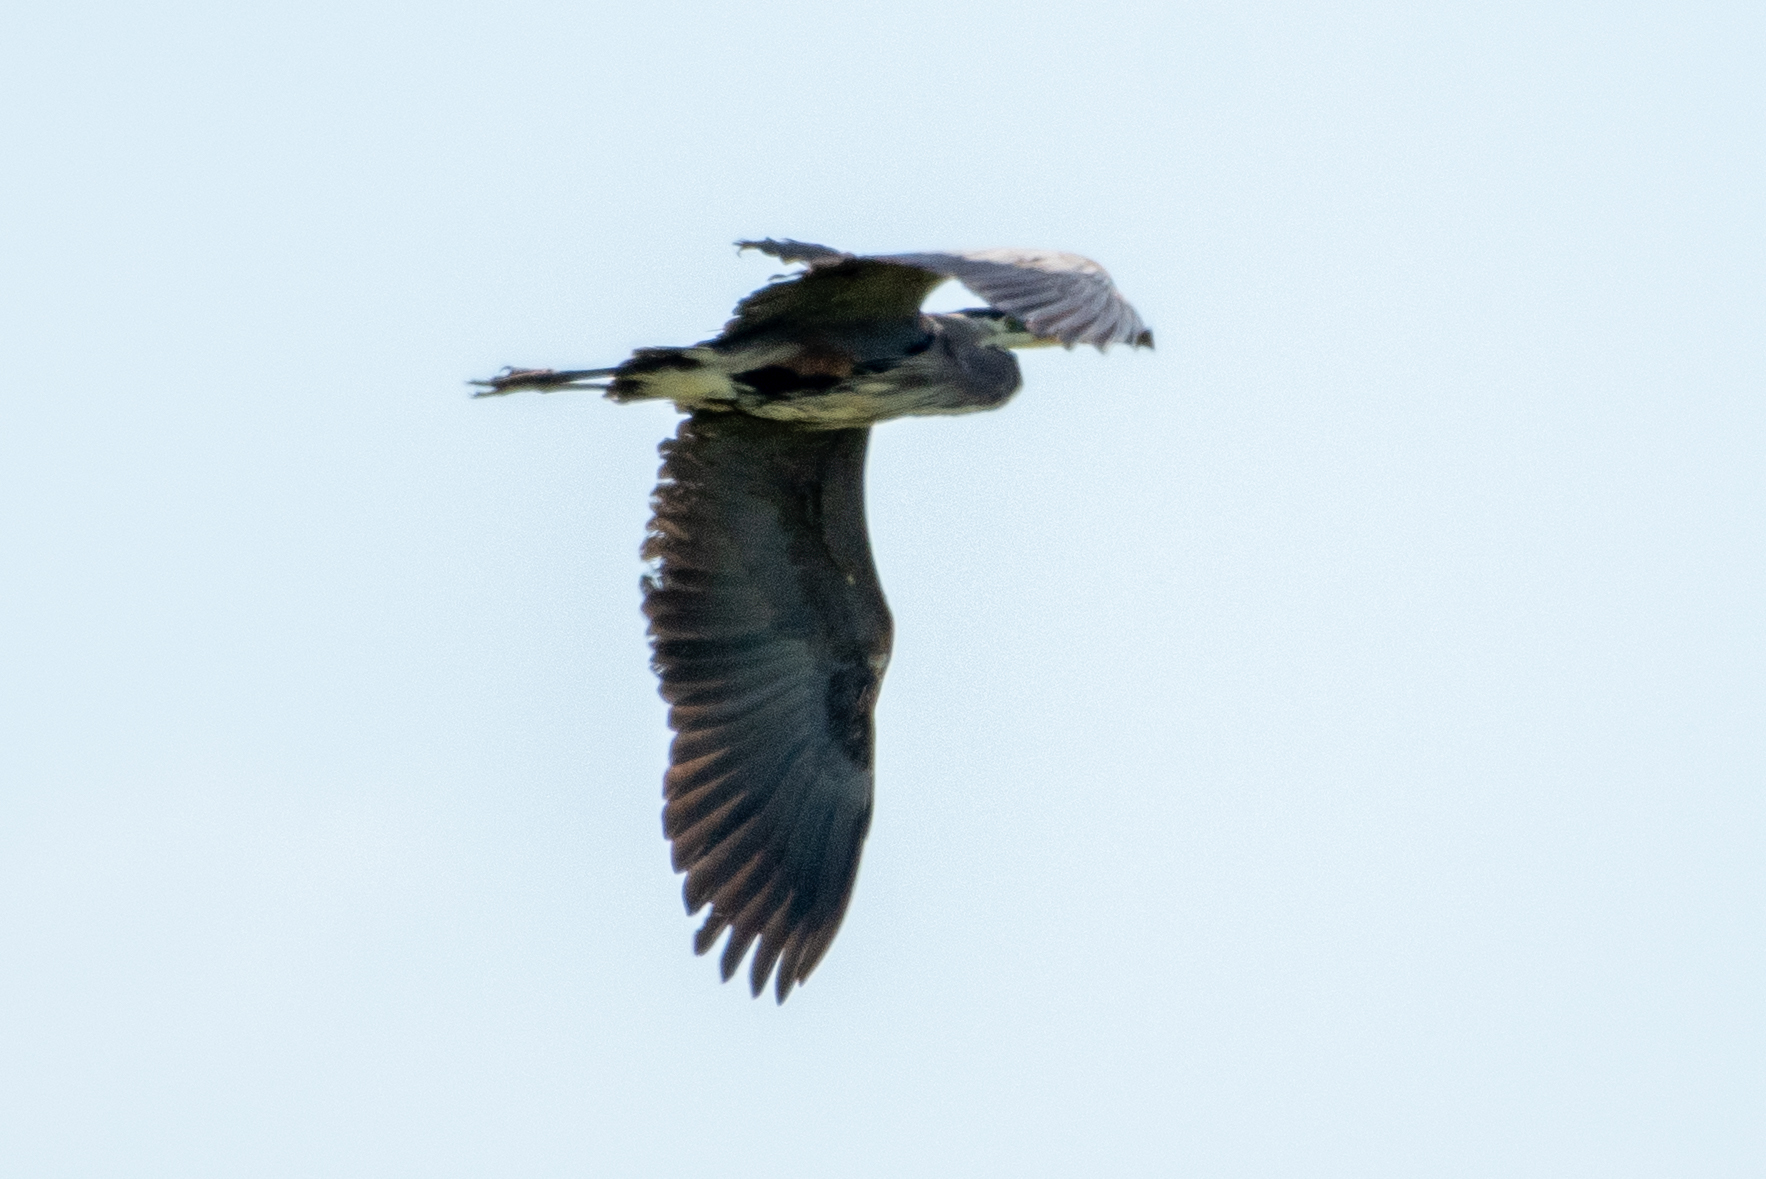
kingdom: Animalia
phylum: Chordata
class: Aves
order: Pelecaniformes
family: Ardeidae
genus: Ardea
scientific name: Ardea herodias
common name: Great blue heron
